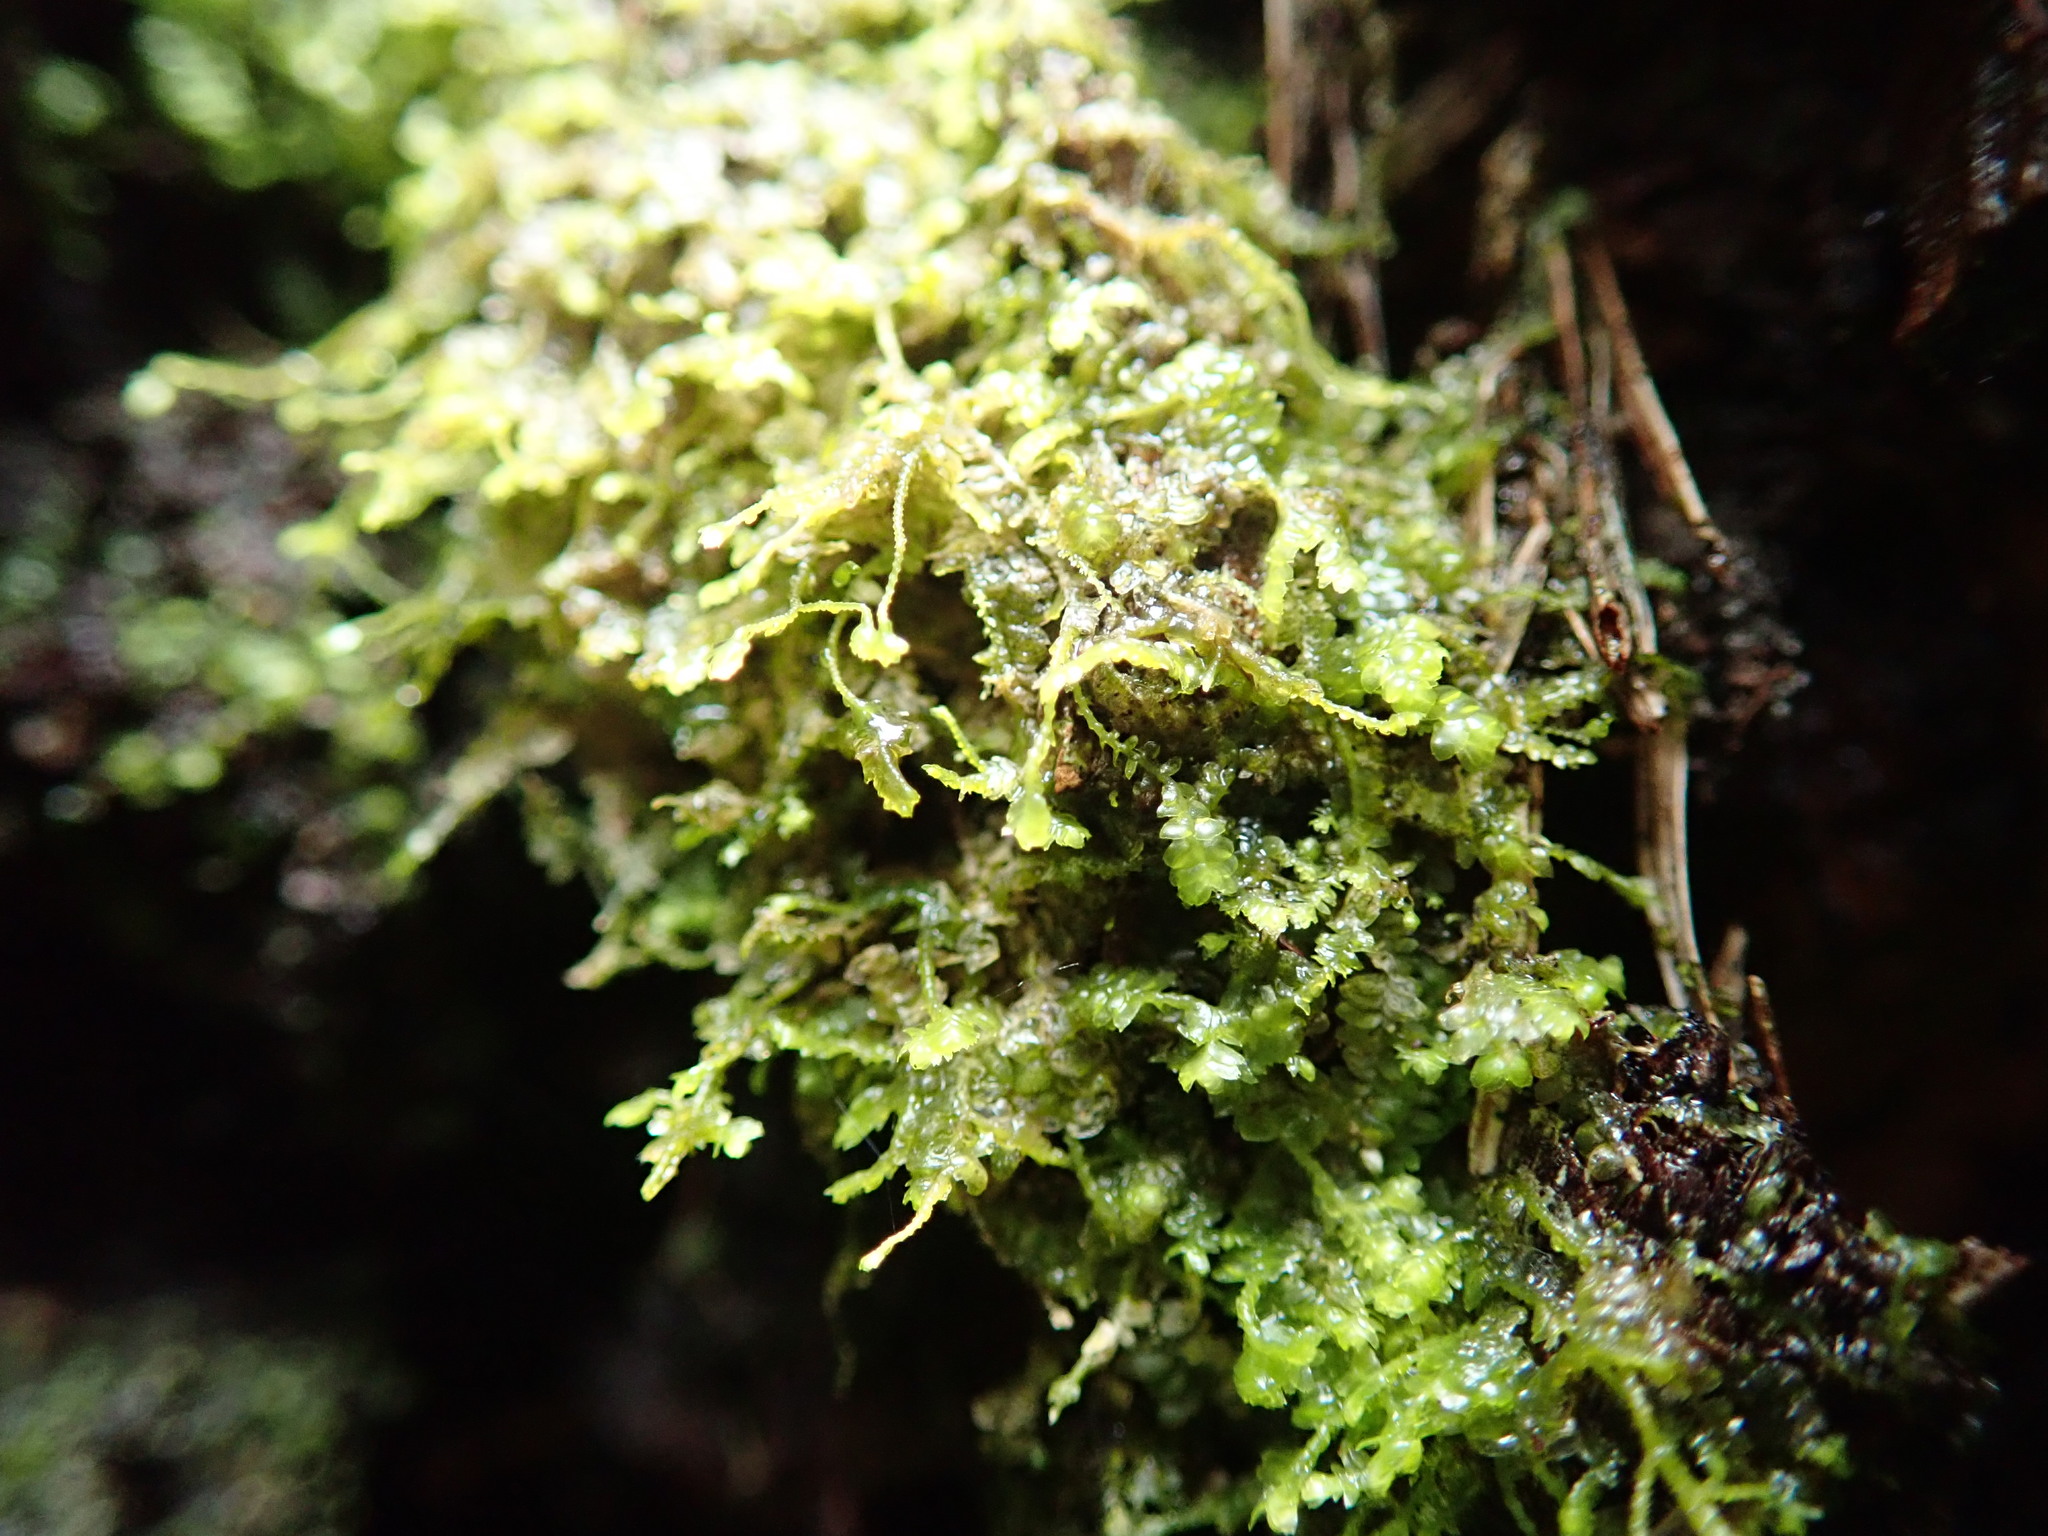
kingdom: Plantae
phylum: Marchantiophyta
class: Jungermanniopsida
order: Jungermanniales
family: Lepidoziaceae
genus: Bazzania
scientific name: Bazzania denudata
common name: Naked whipwort
